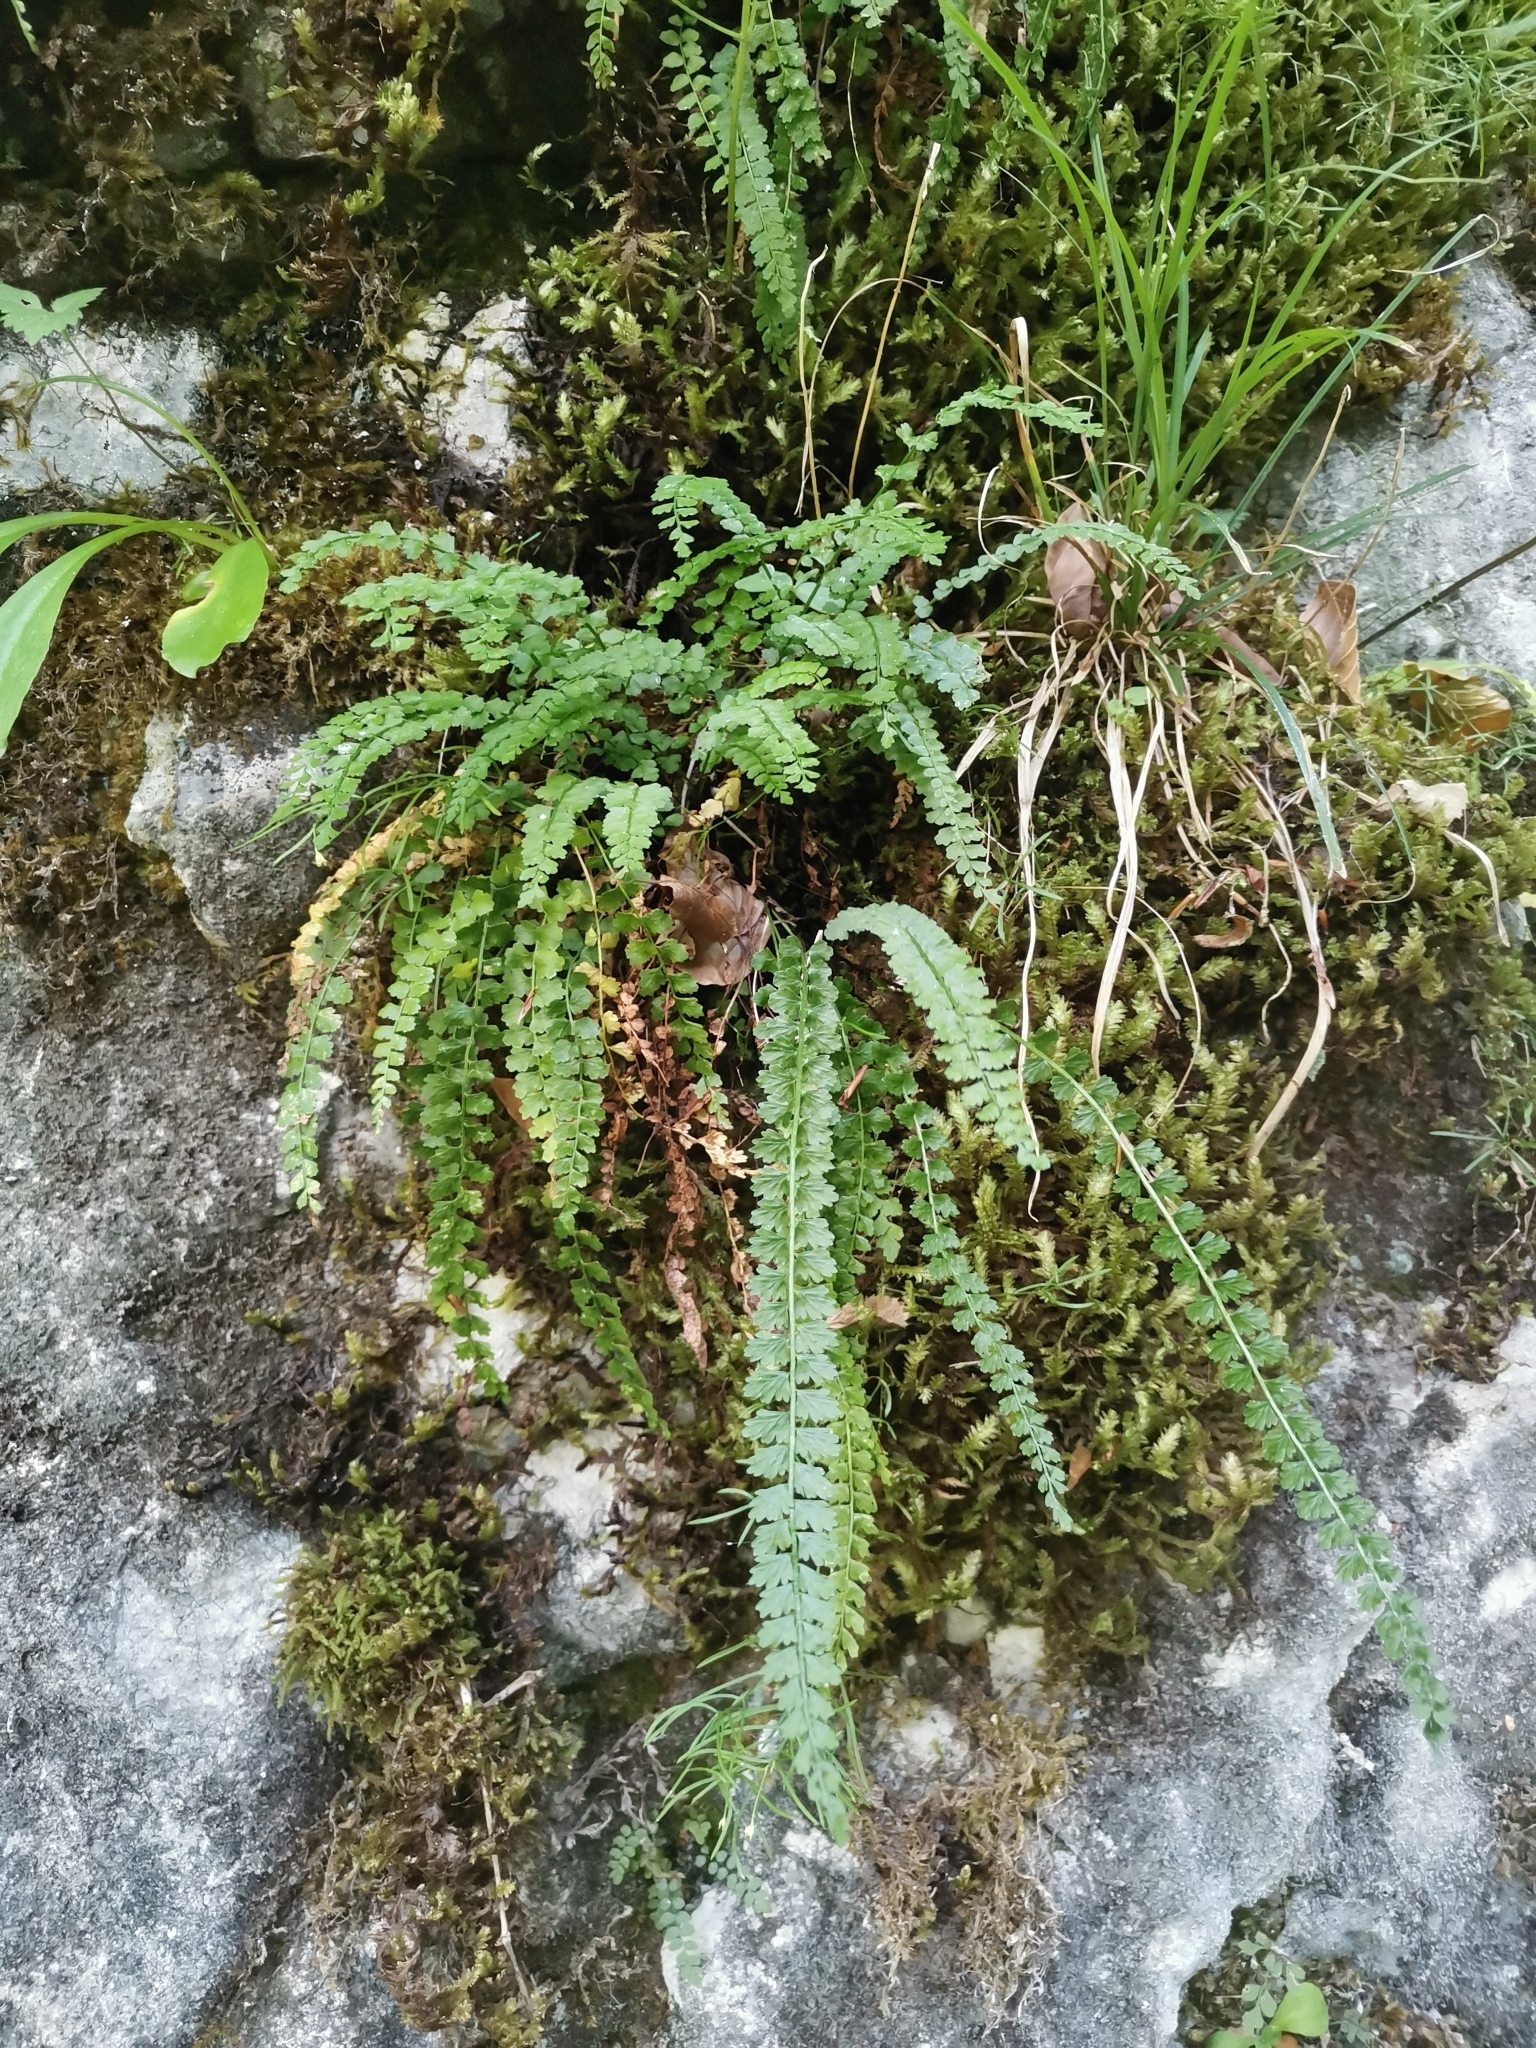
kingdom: Plantae
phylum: Tracheophyta
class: Polypodiopsida
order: Polypodiales
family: Aspleniaceae
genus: Asplenium
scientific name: Asplenium viride
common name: Green spleenwort
